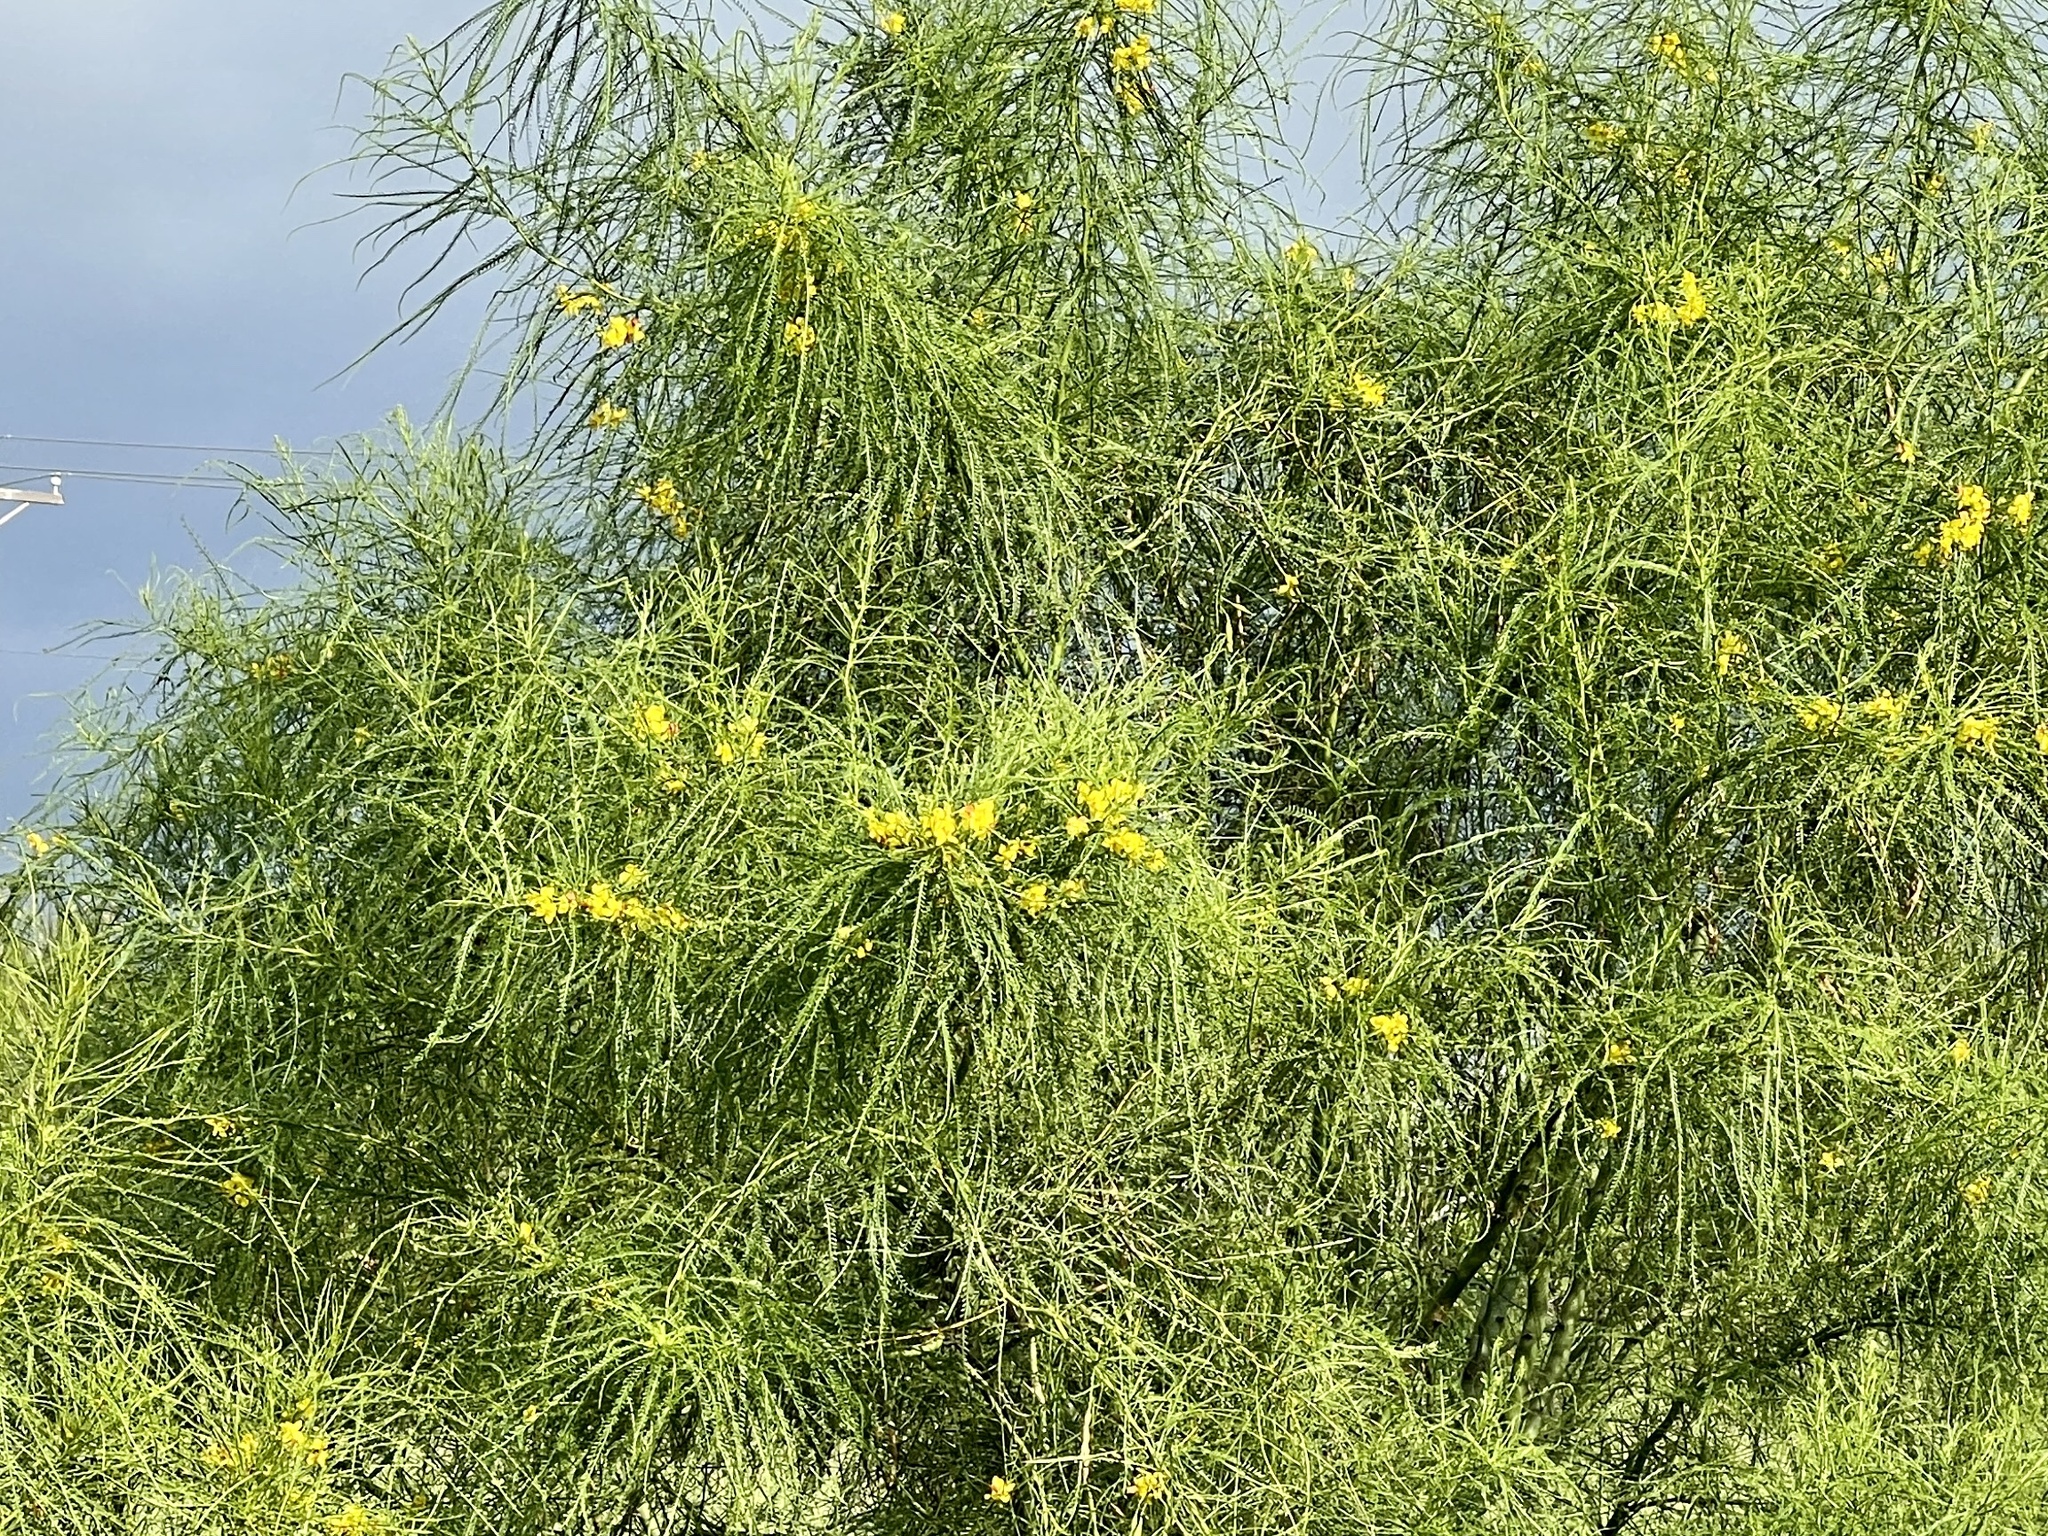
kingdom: Plantae
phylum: Tracheophyta
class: Magnoliopsida
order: Fabales
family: Fabaceae
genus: Parkinsonia
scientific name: Parkinsonia aculeata
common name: Jerusalem thorn
